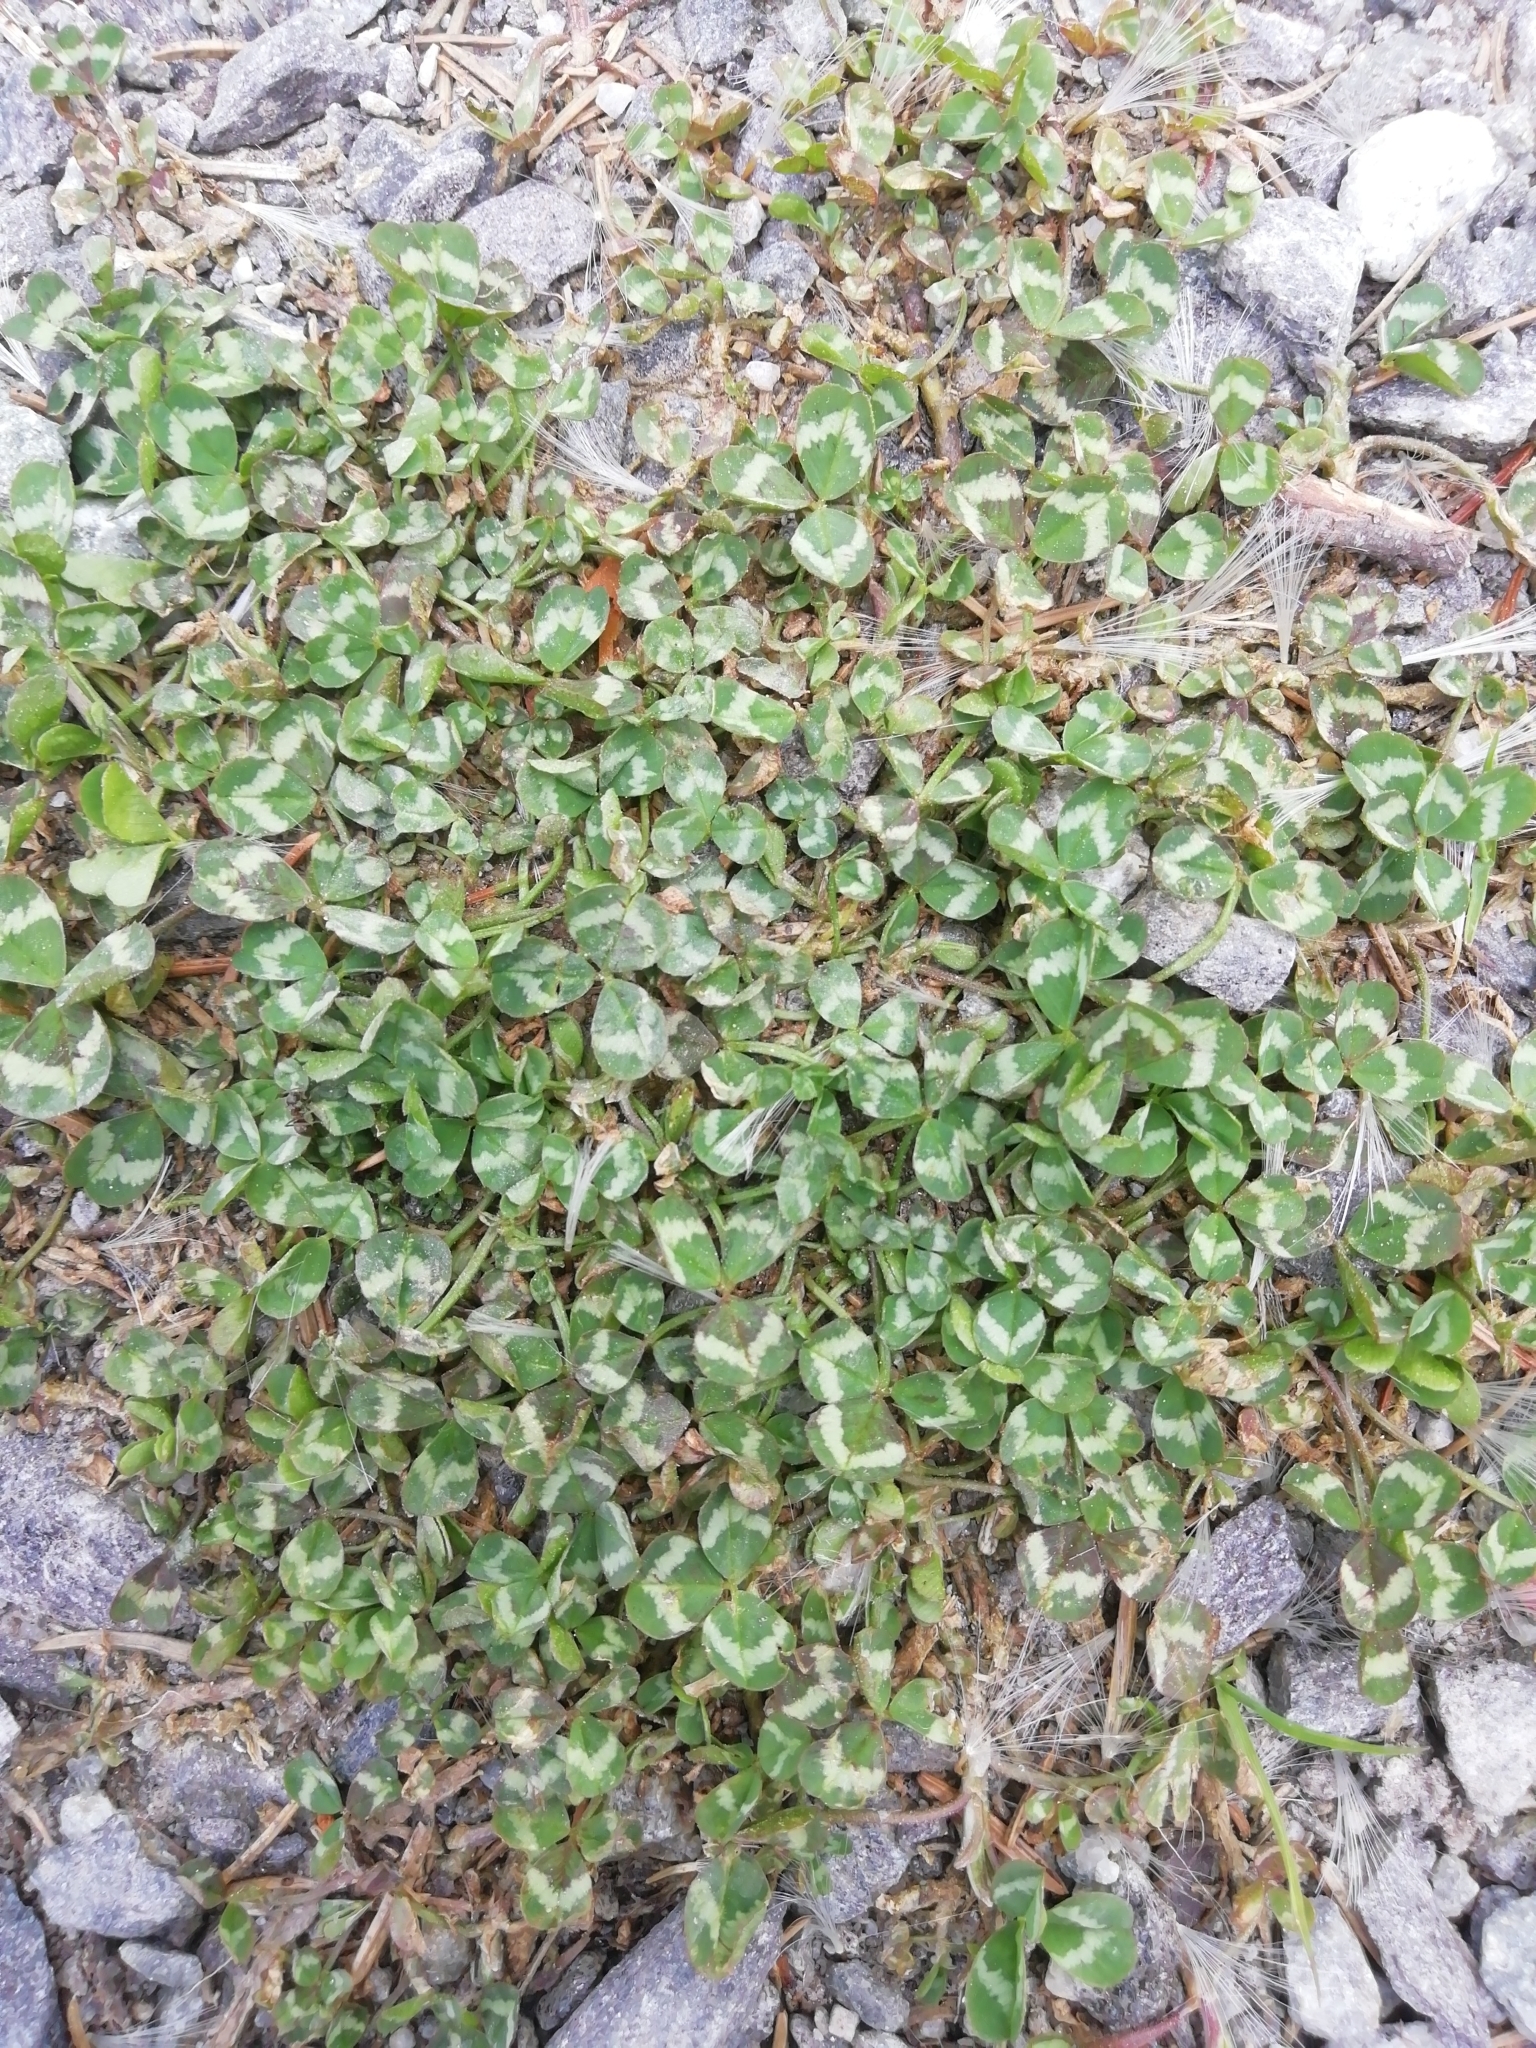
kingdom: Plantae
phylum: Tracheophyta
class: Magnoliopsida
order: Fabales
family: Fabaceae
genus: Trifolium
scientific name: Trifolium repens
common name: White clover
